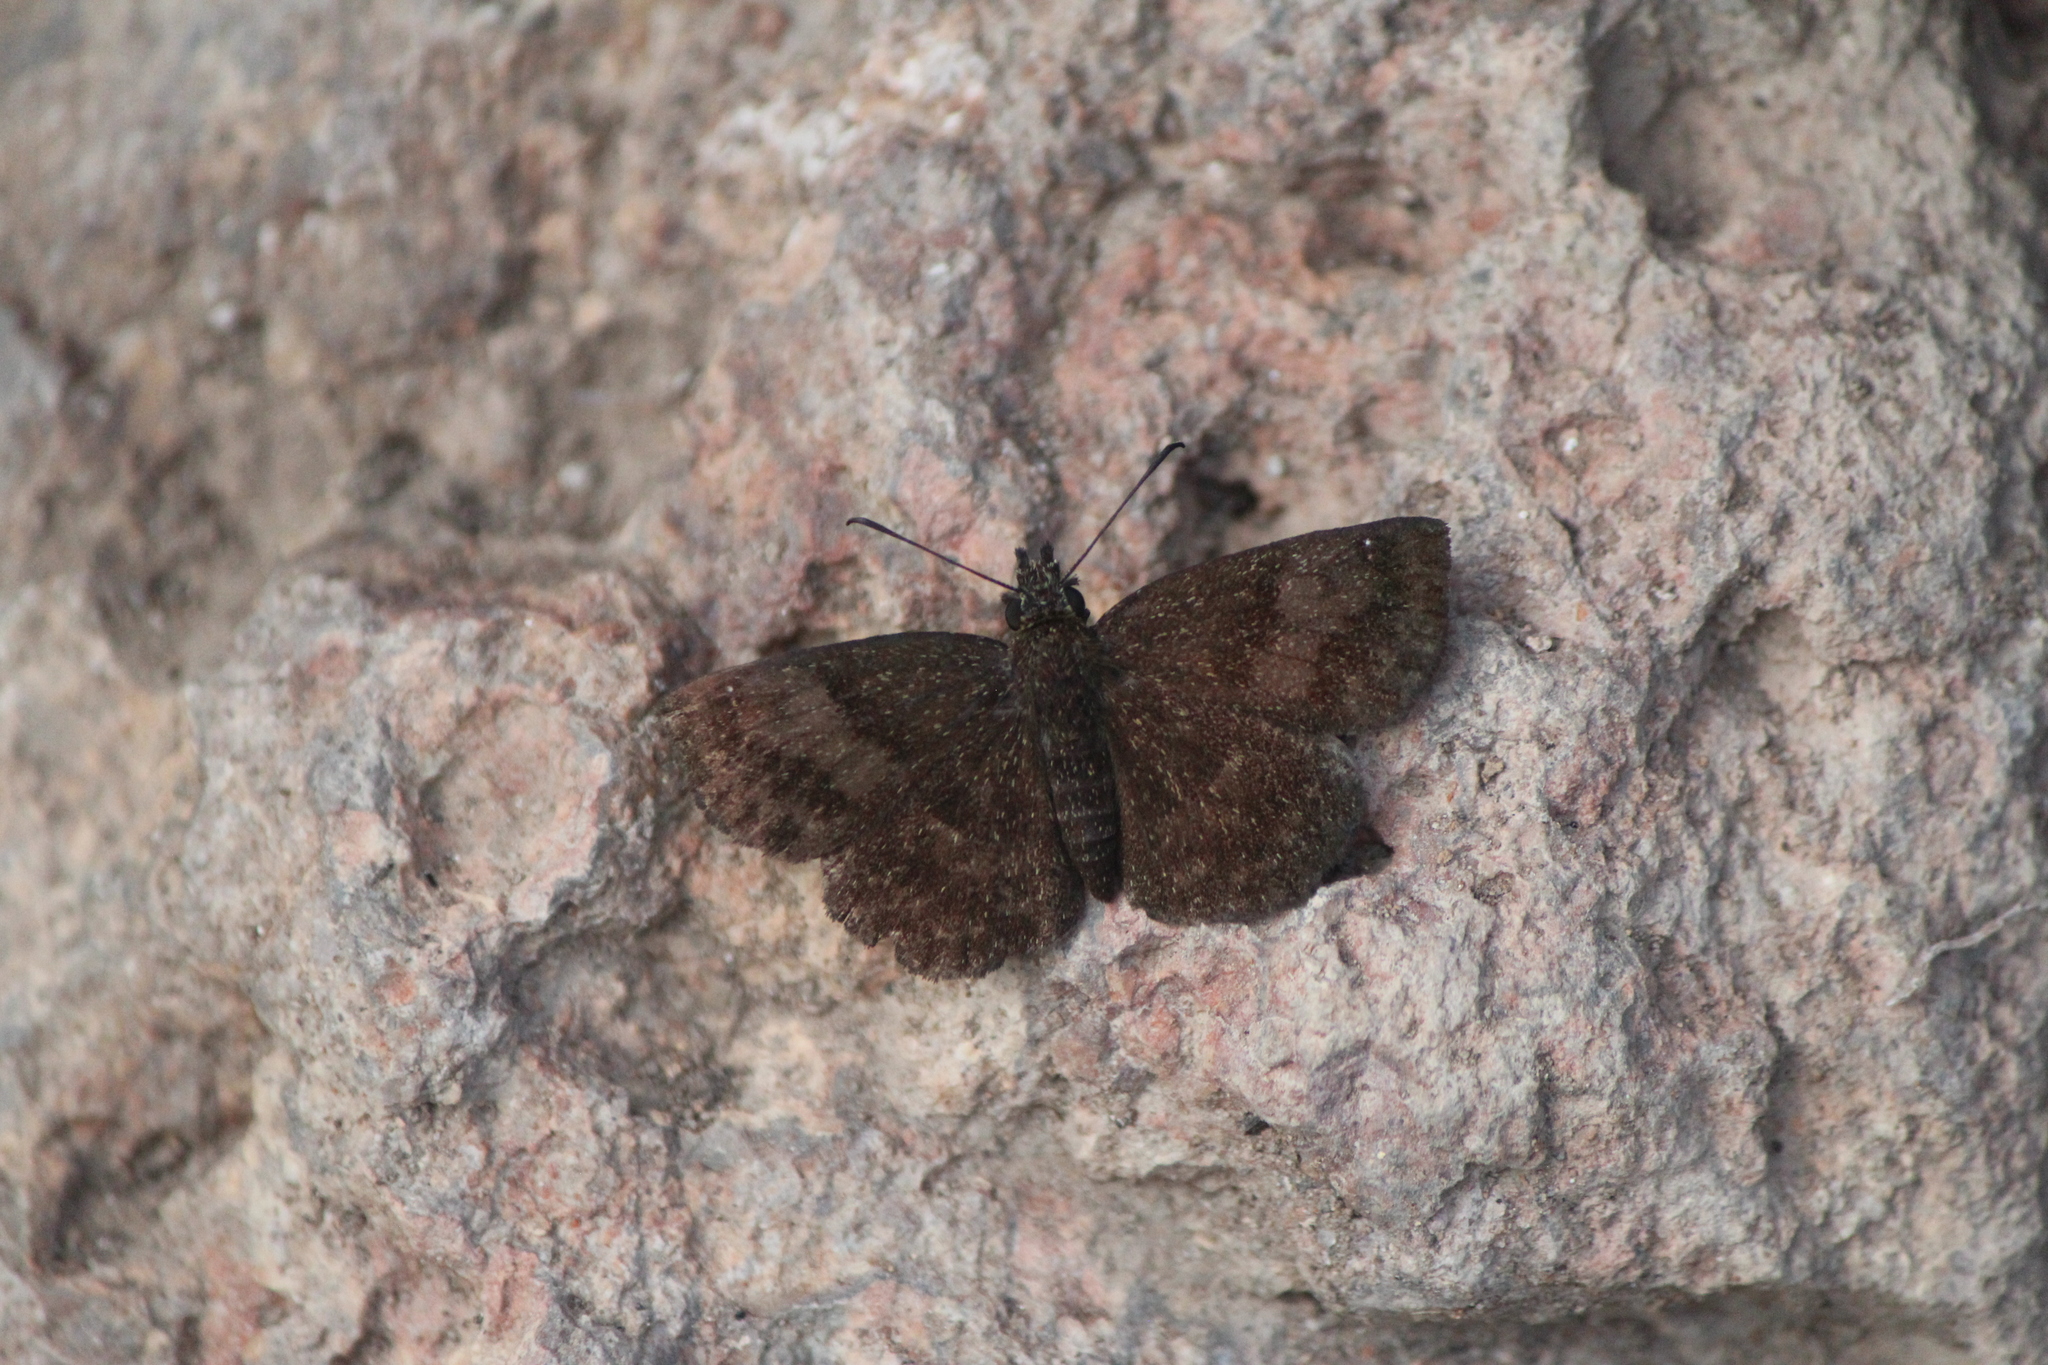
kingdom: Animalia
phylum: Arthropoda
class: Insecta
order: Lepidoptera
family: Hesperiidae
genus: Staphylus
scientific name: Staphylus vincula
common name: Mountain sootywing
